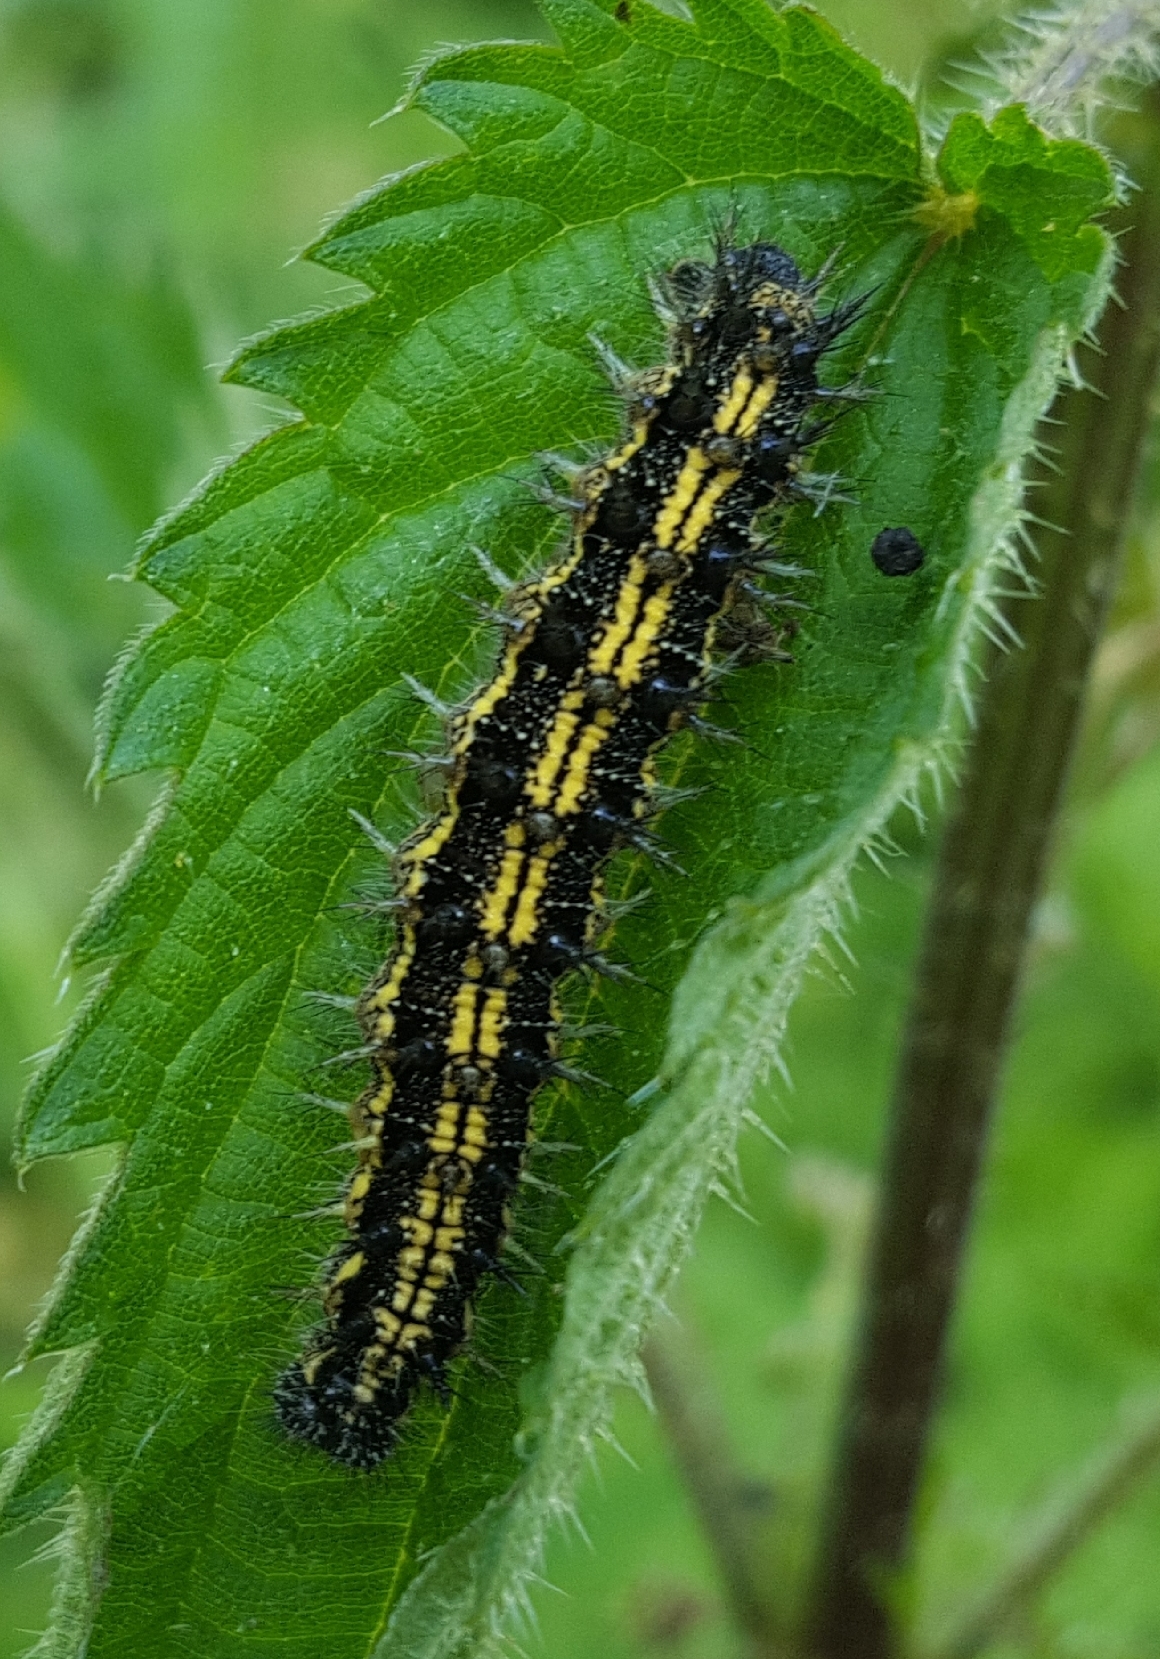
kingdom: Animalia
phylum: Arthropoda
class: Insecta
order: Lepidoptera
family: Nymphalidae
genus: Aglais
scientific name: Aglais urticae
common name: Small tortoiseshell
